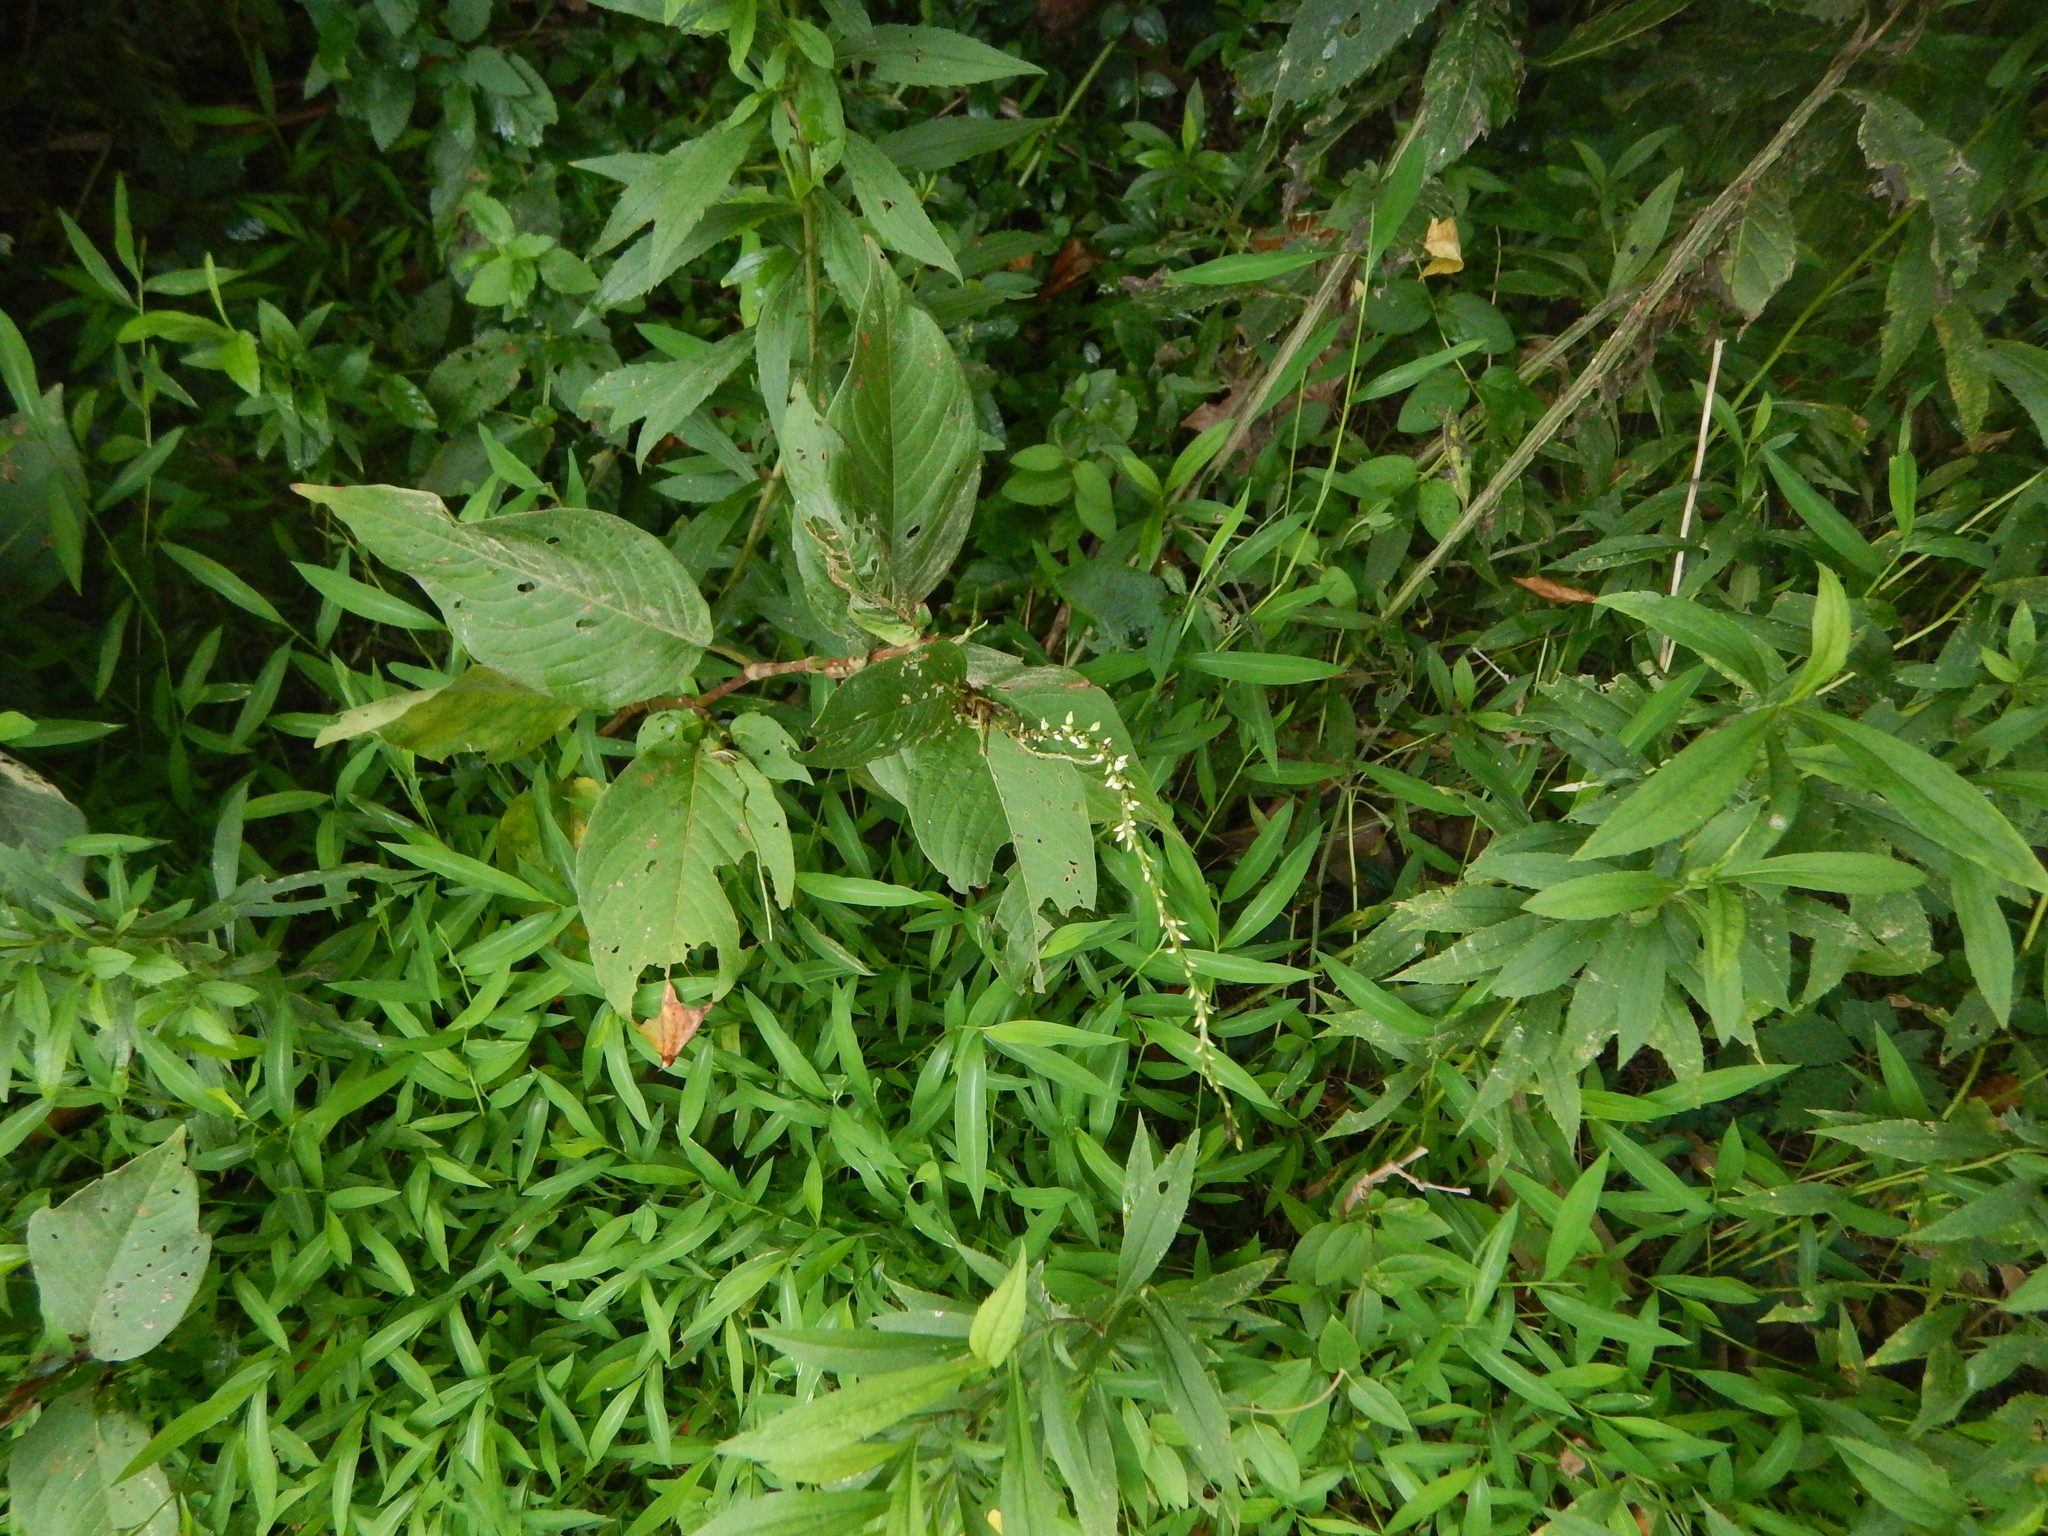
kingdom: Plantae
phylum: Tracheophyta
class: Magnoliopsida
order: Caryophyllales
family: Polygonaceae
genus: Persicaria
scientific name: Persicaria virginiana
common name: Jumpseed
